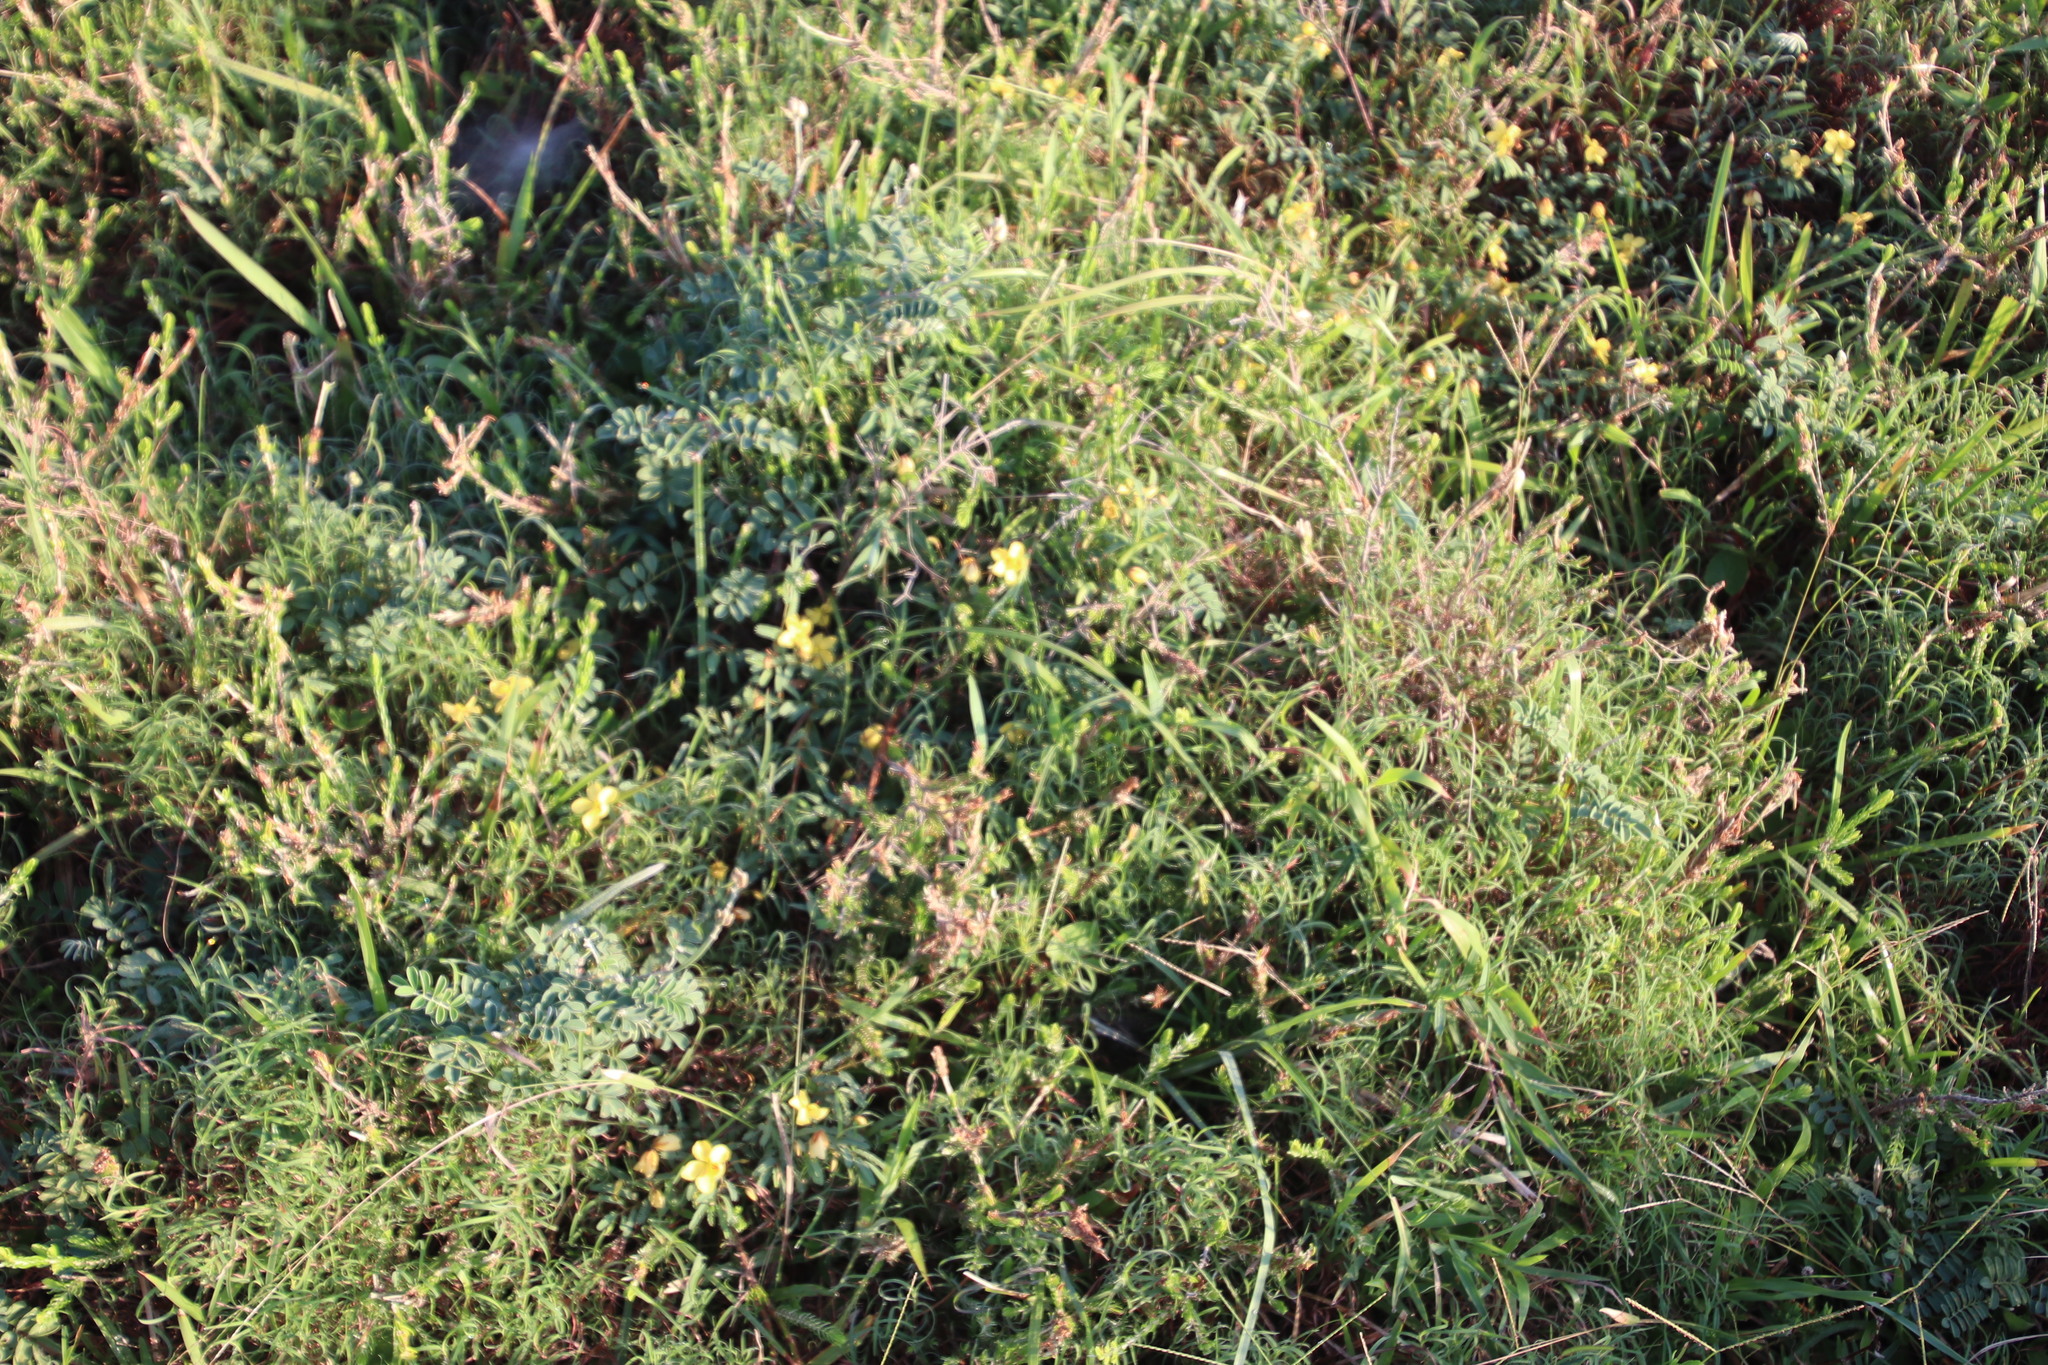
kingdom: Plantae
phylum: Tracheophyta
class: Magnoliopsida
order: Fabales
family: Fabaceae
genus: Chamaecrista
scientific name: Chamaecrista comosa
